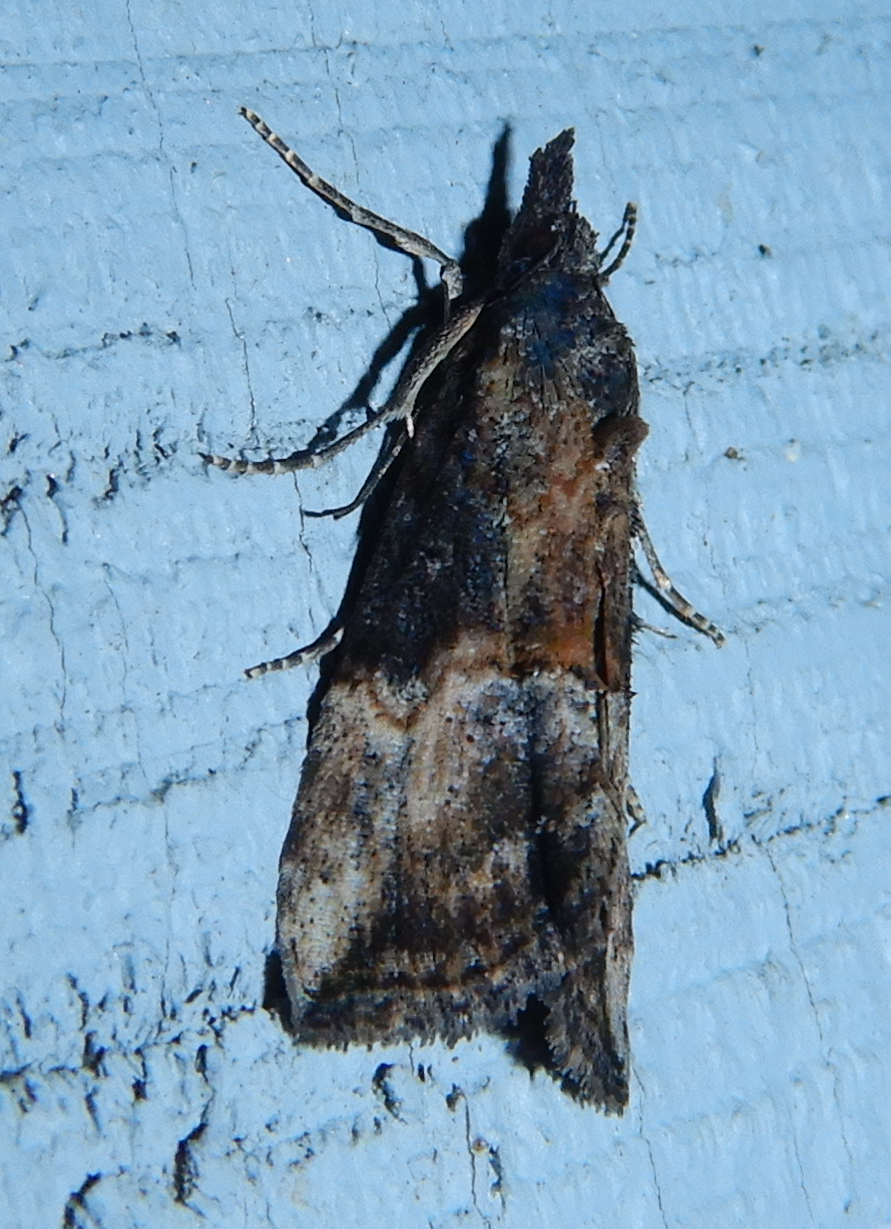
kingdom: Animalia
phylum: Arthropoda
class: Insecta
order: Lepidoptera
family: Erebidae
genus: Hypena
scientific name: Hypena scabra
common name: Green cloverworm
